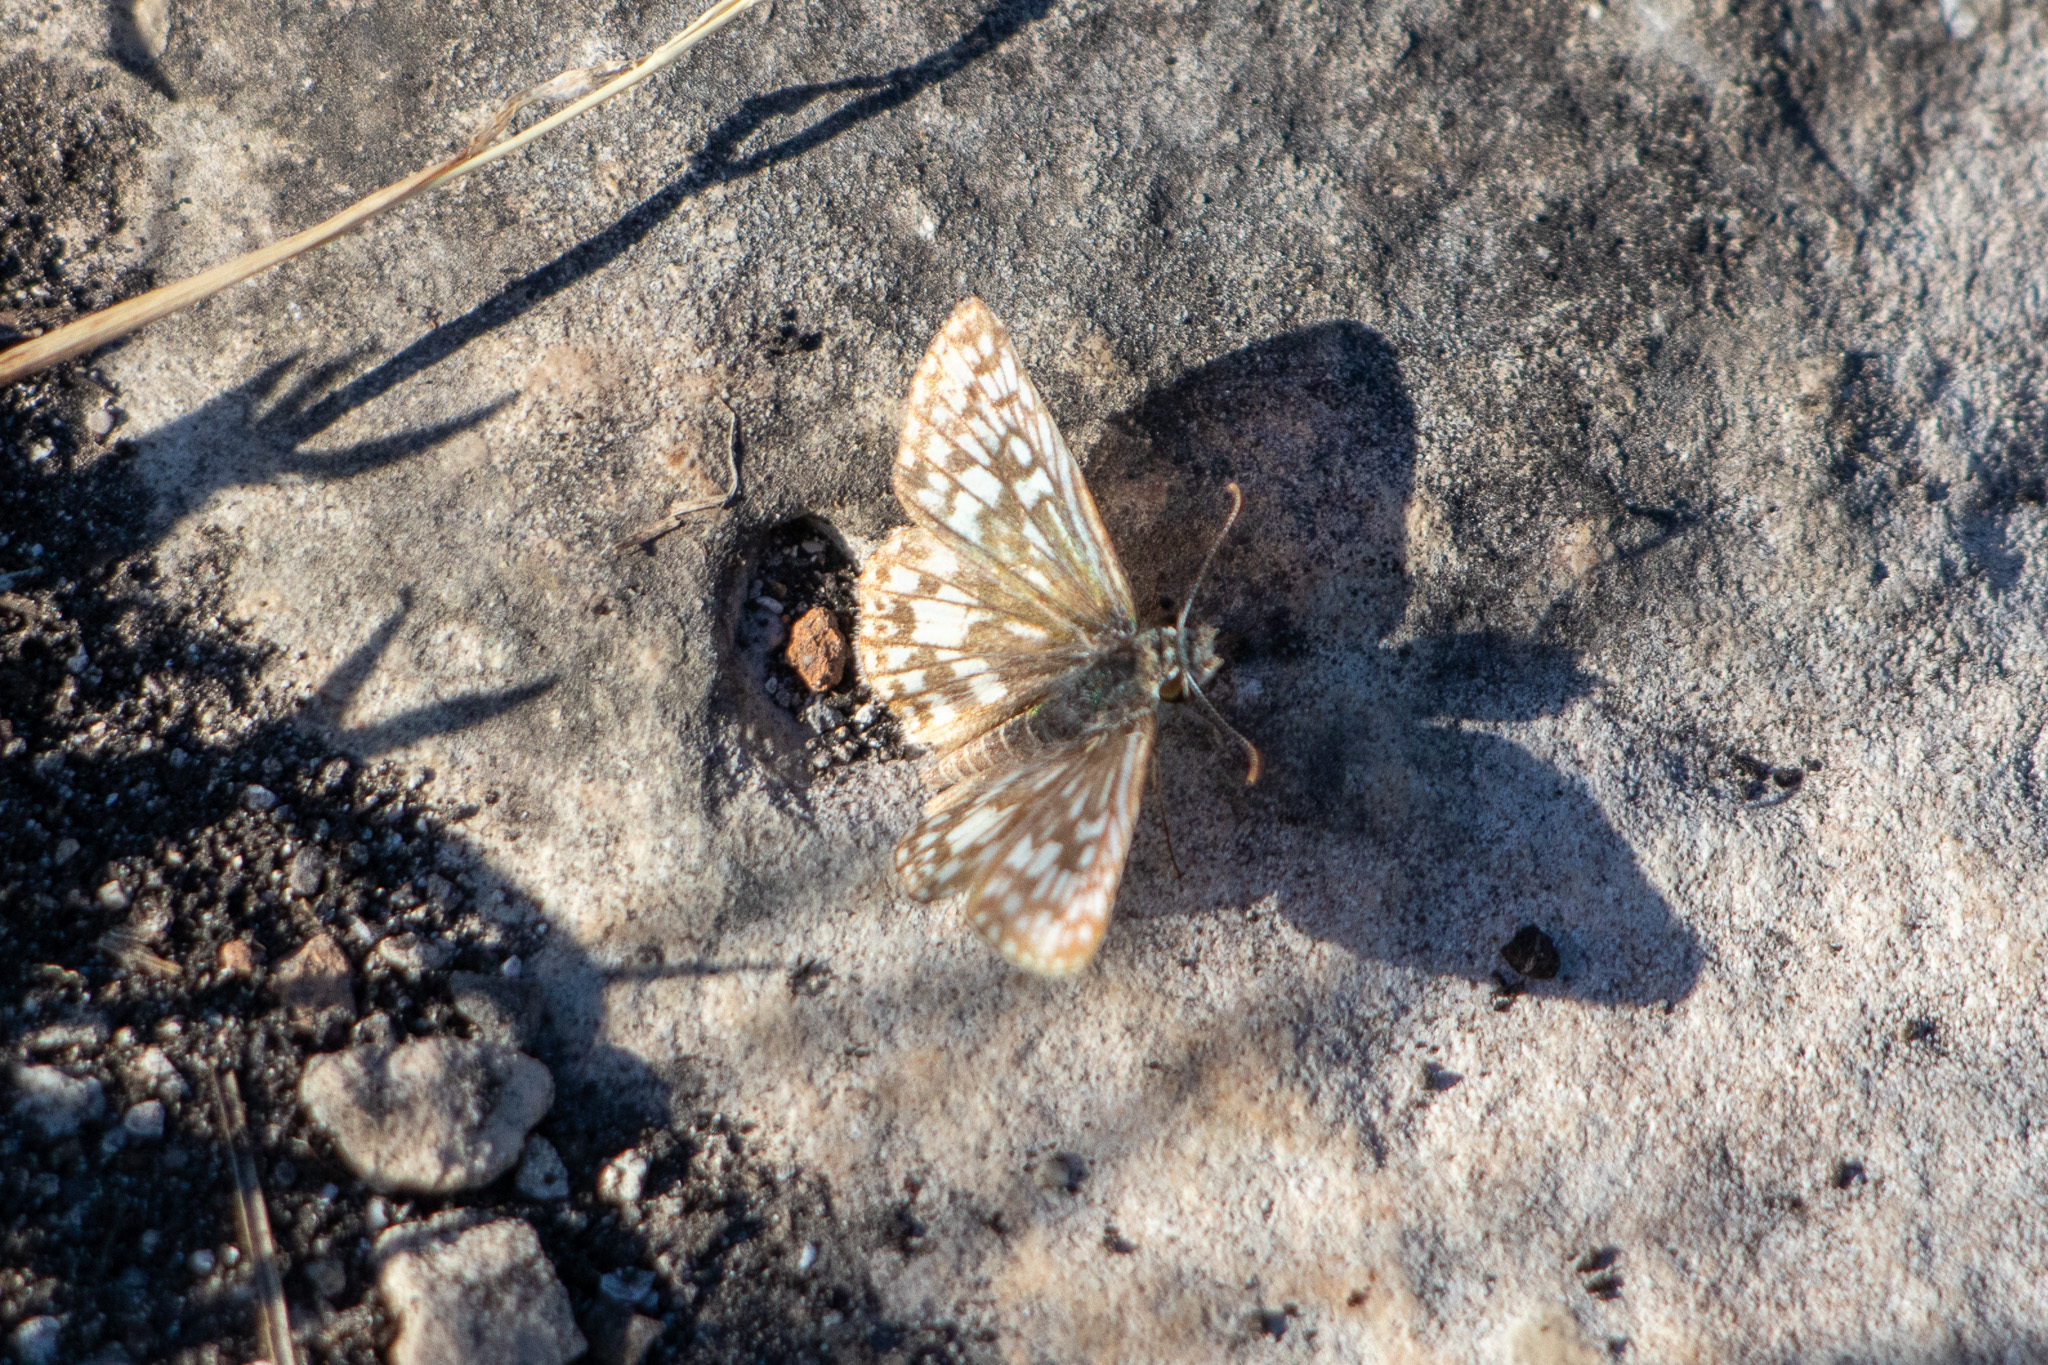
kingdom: Animalia
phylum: Arthropoda
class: Insecta
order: Lepidoptera
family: Hesperiidae
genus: Pyrgus
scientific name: Pyrgus oileus
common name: Tropical checkered-skipper
